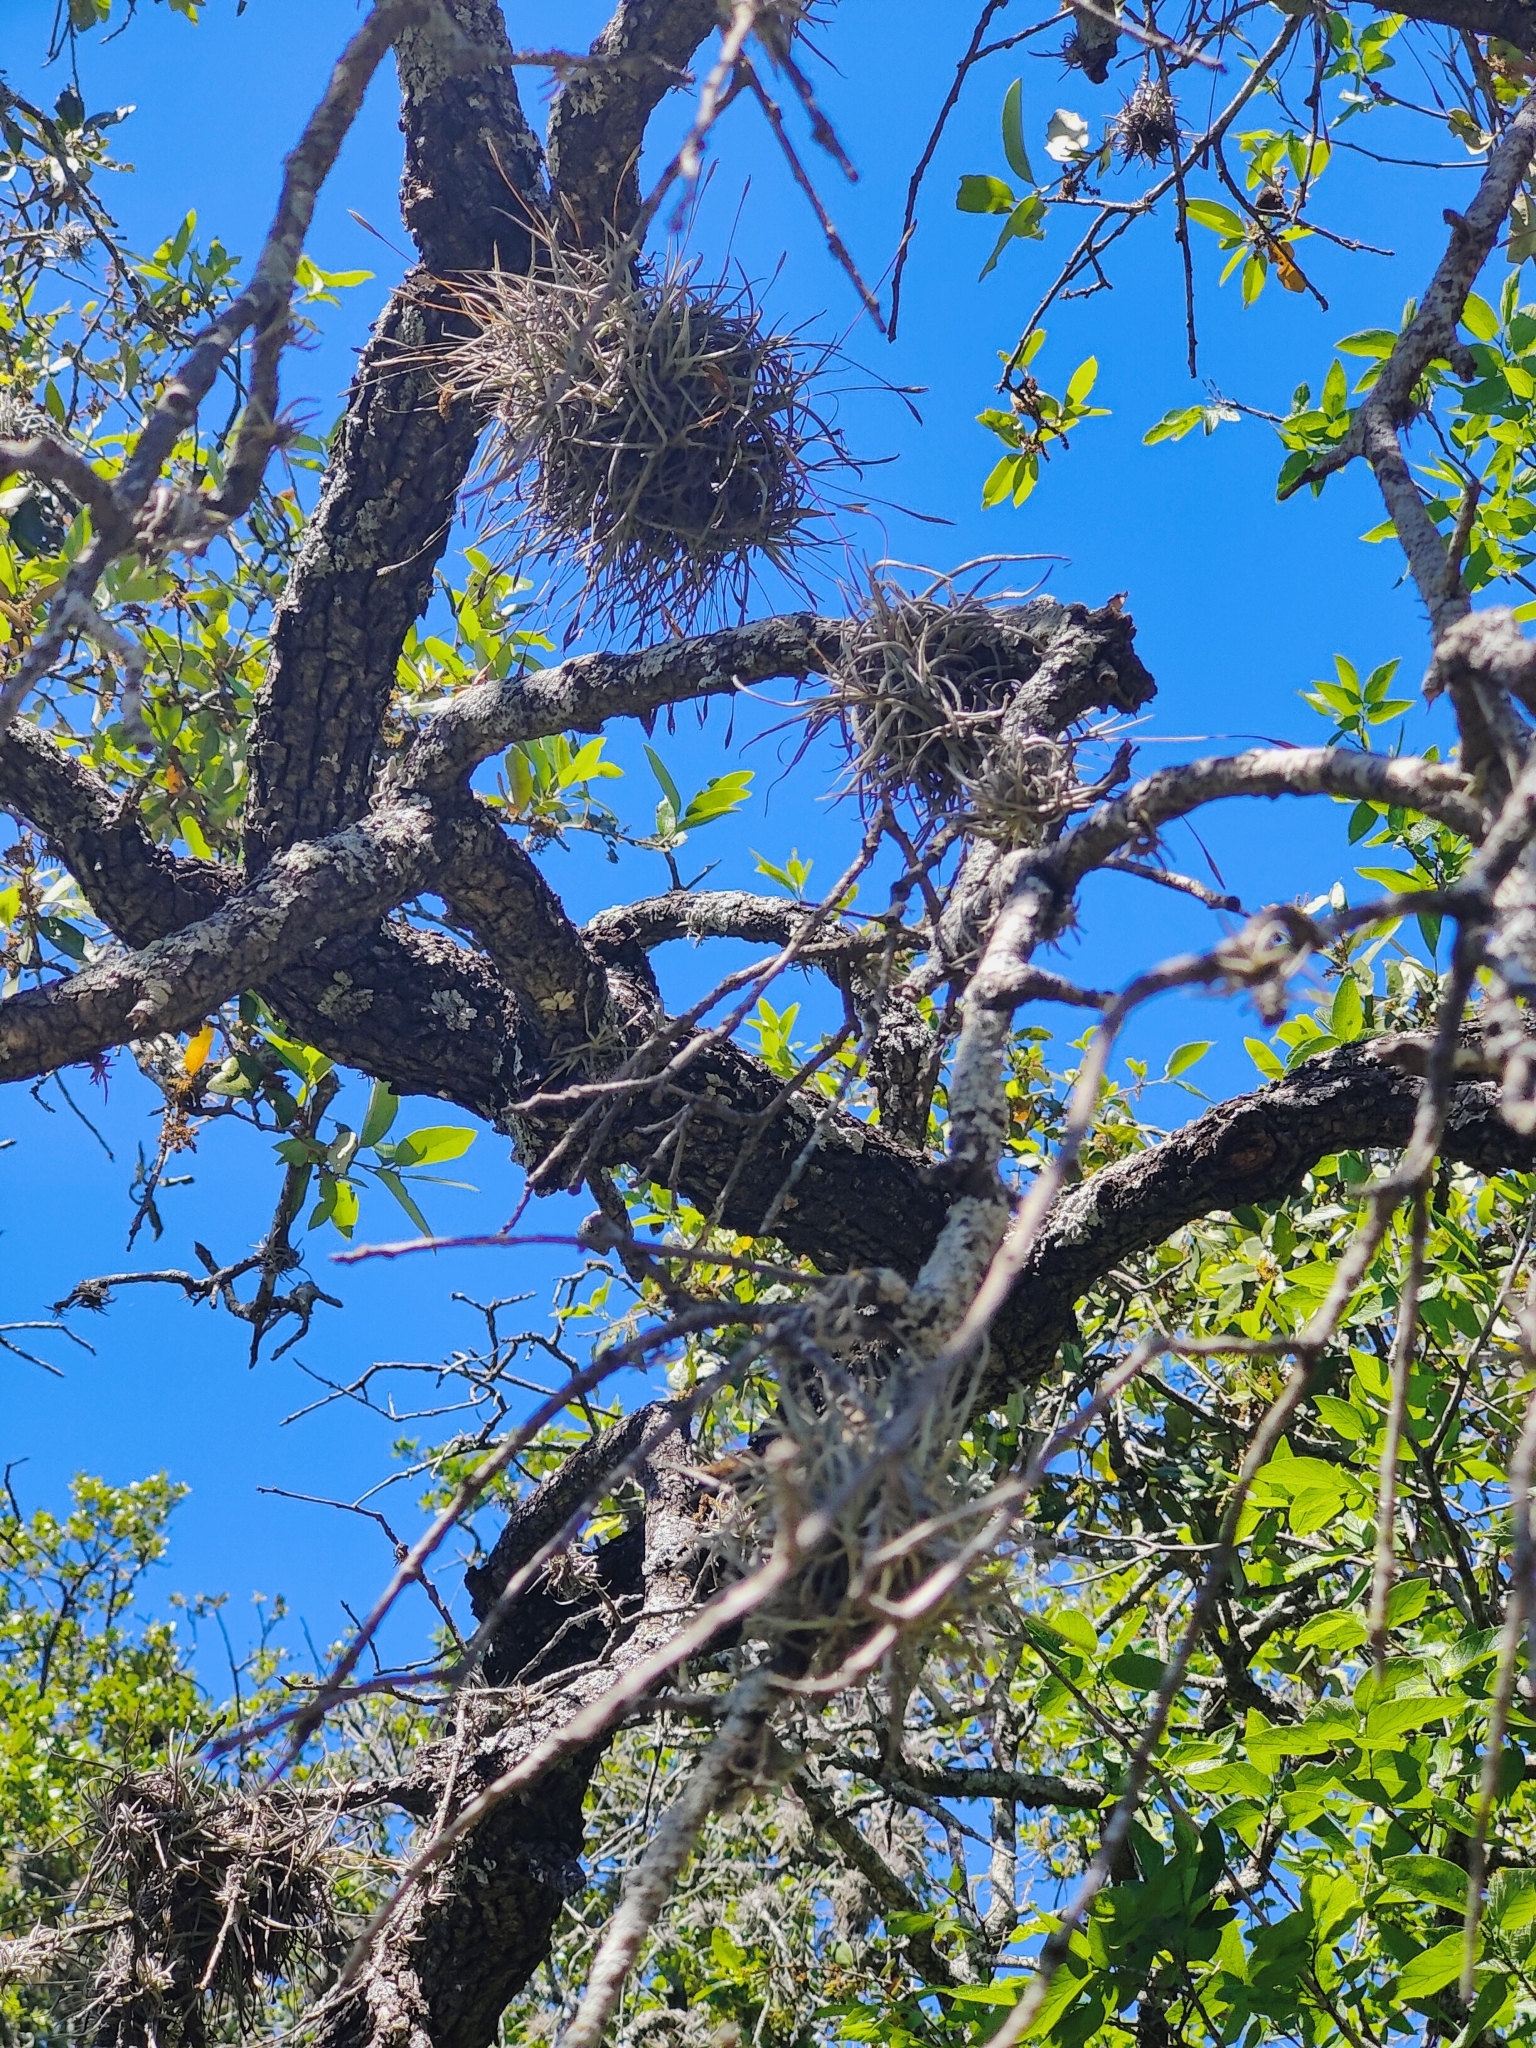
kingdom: Plantae
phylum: Tracheophyta
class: Liliopsida
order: Poales
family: Bromeliaceae
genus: Tillandsia
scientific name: Tillandsia recurvata
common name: Small ballmoss
